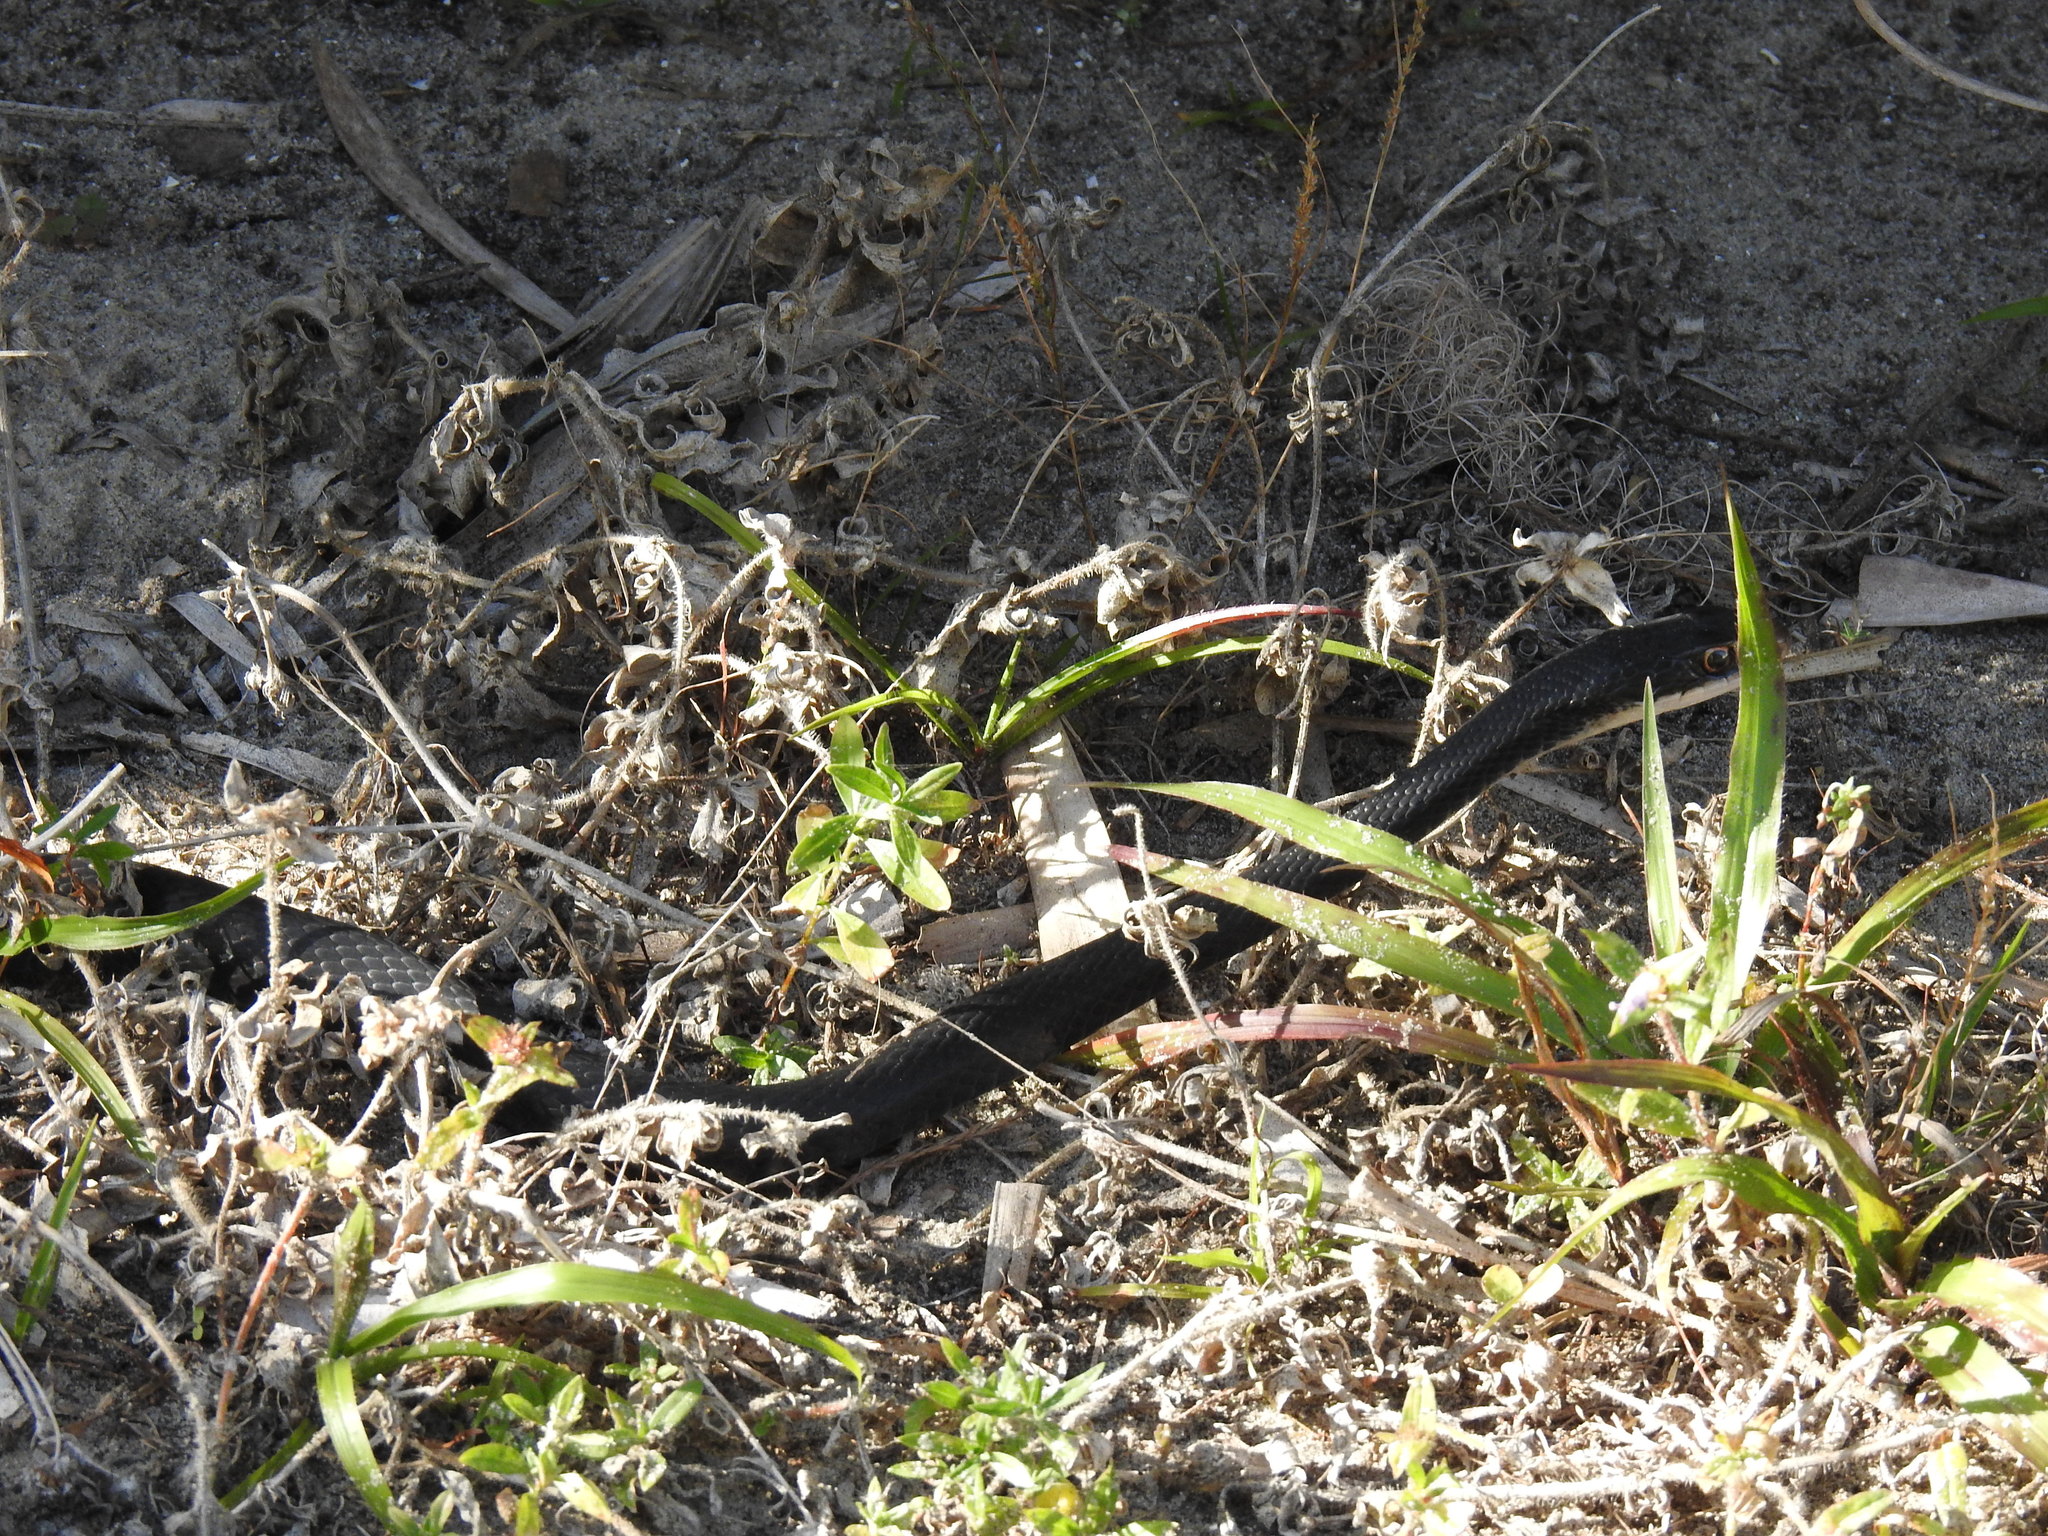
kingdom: Animalia
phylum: Chordata
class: Squamata
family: Colubridae
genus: Coluber
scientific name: Coluber constrictor
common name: Eastern racer
